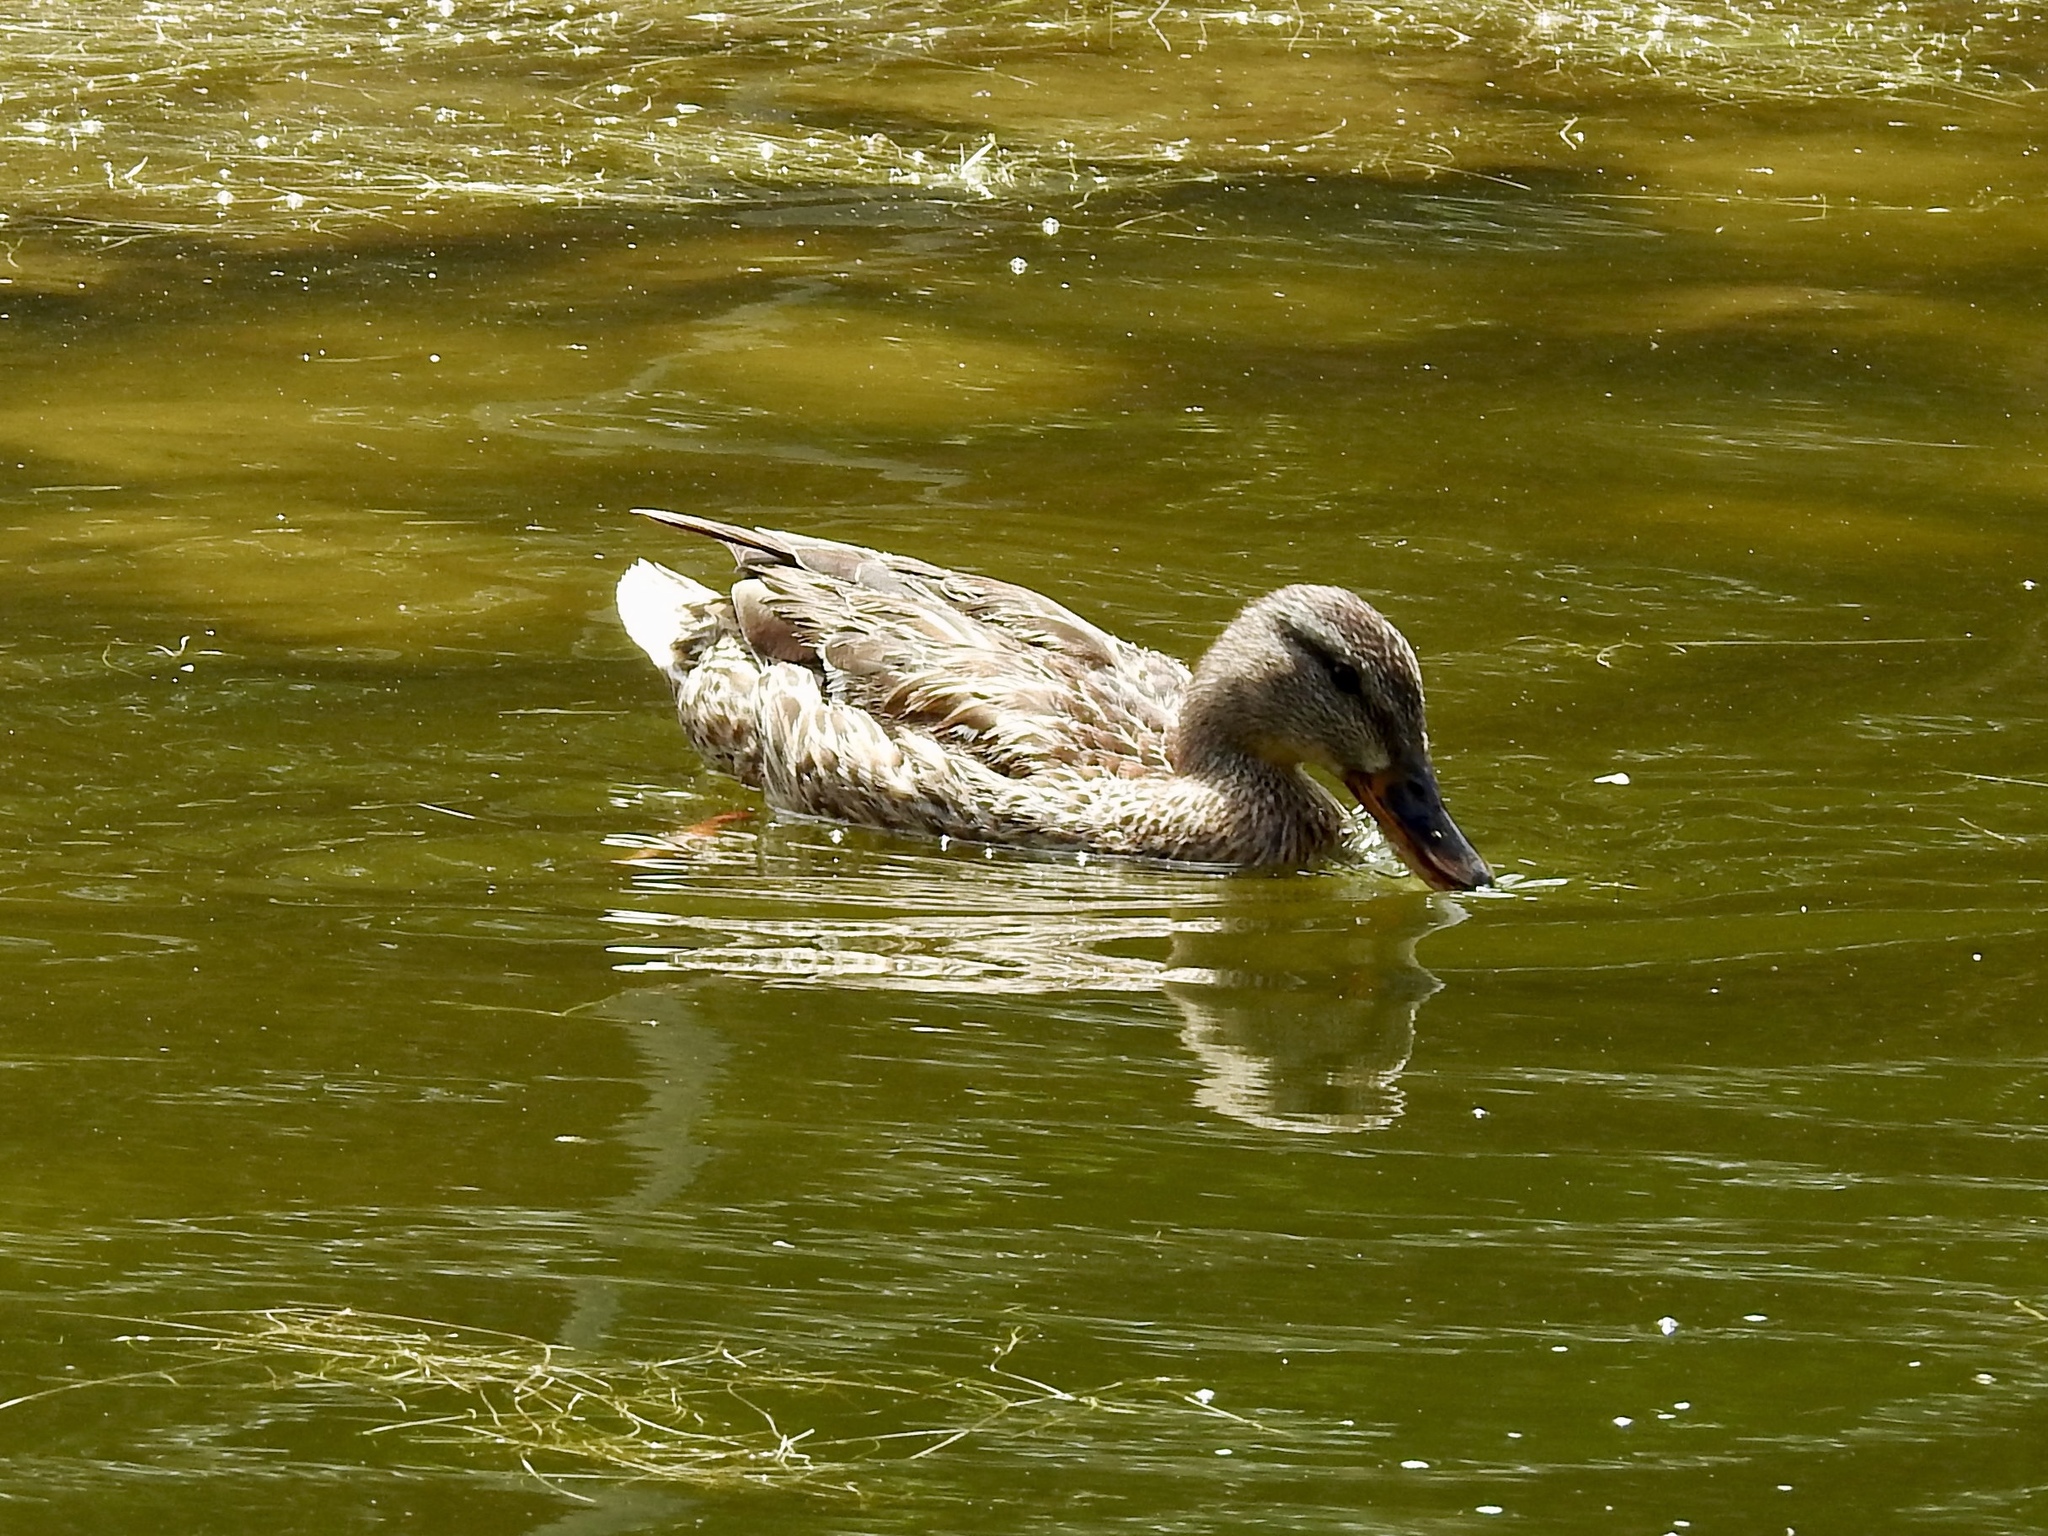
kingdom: Animalia
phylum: Chordata
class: Aves
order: Anseriformes
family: Anatidae
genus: Anas
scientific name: Anas platyrhynchos
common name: Mallard
